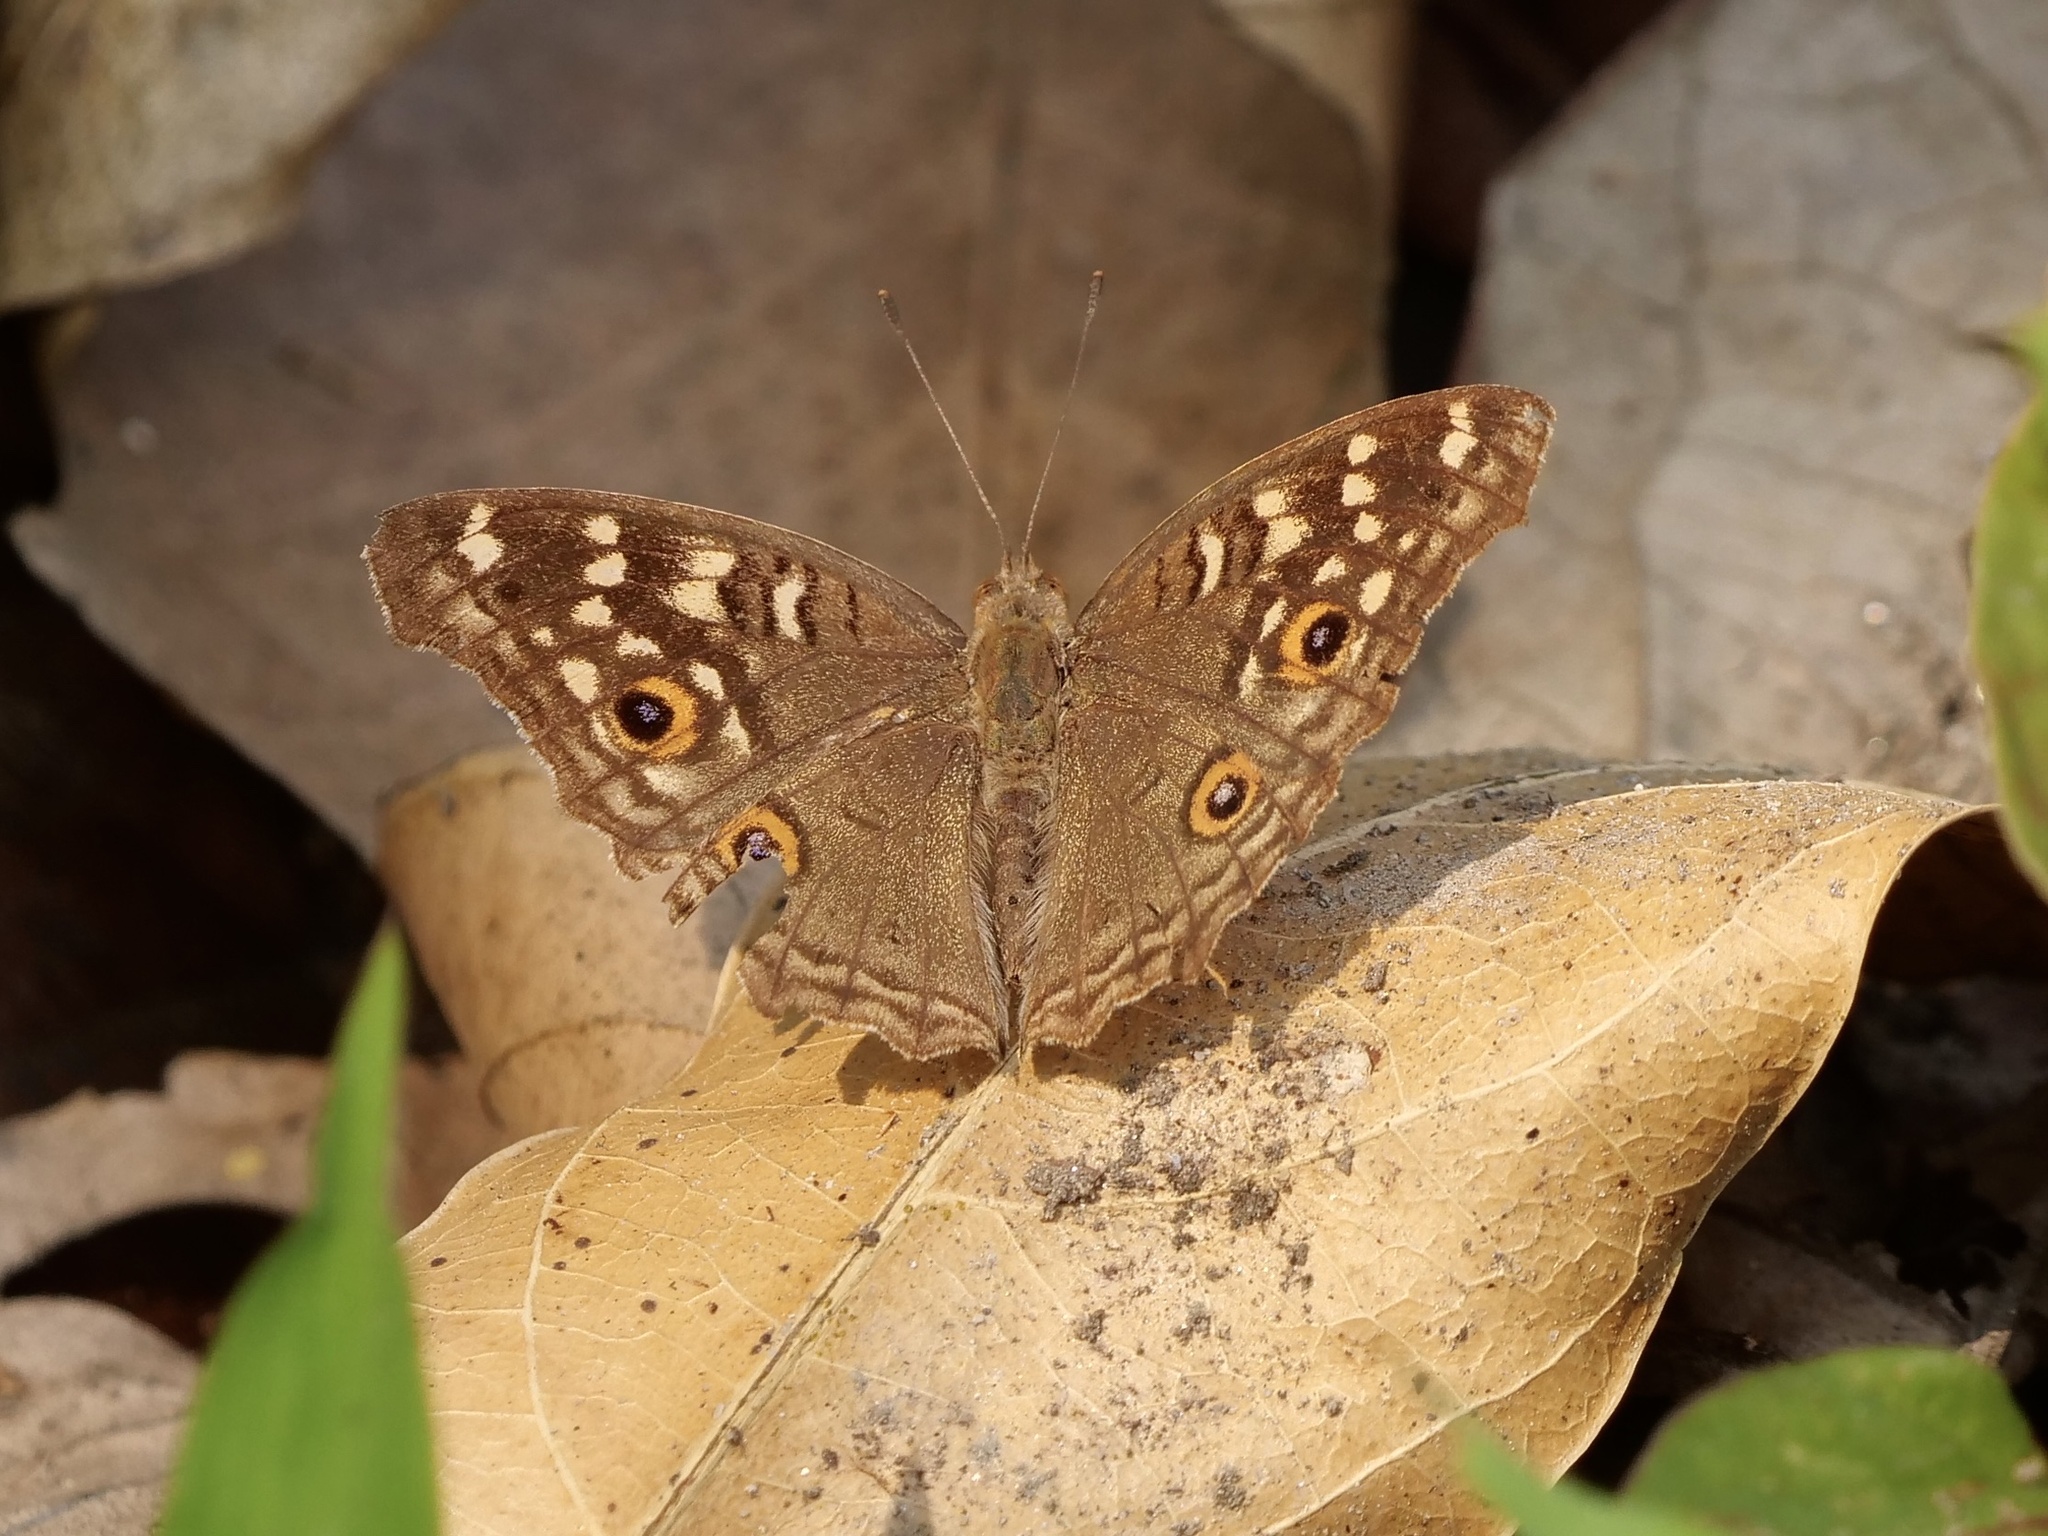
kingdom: Animalia
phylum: Arthropoda
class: Insecta
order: Lepidoptera
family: Nymphalidae
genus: Junonia
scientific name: Junonia lemonias
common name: Lemon pansy
